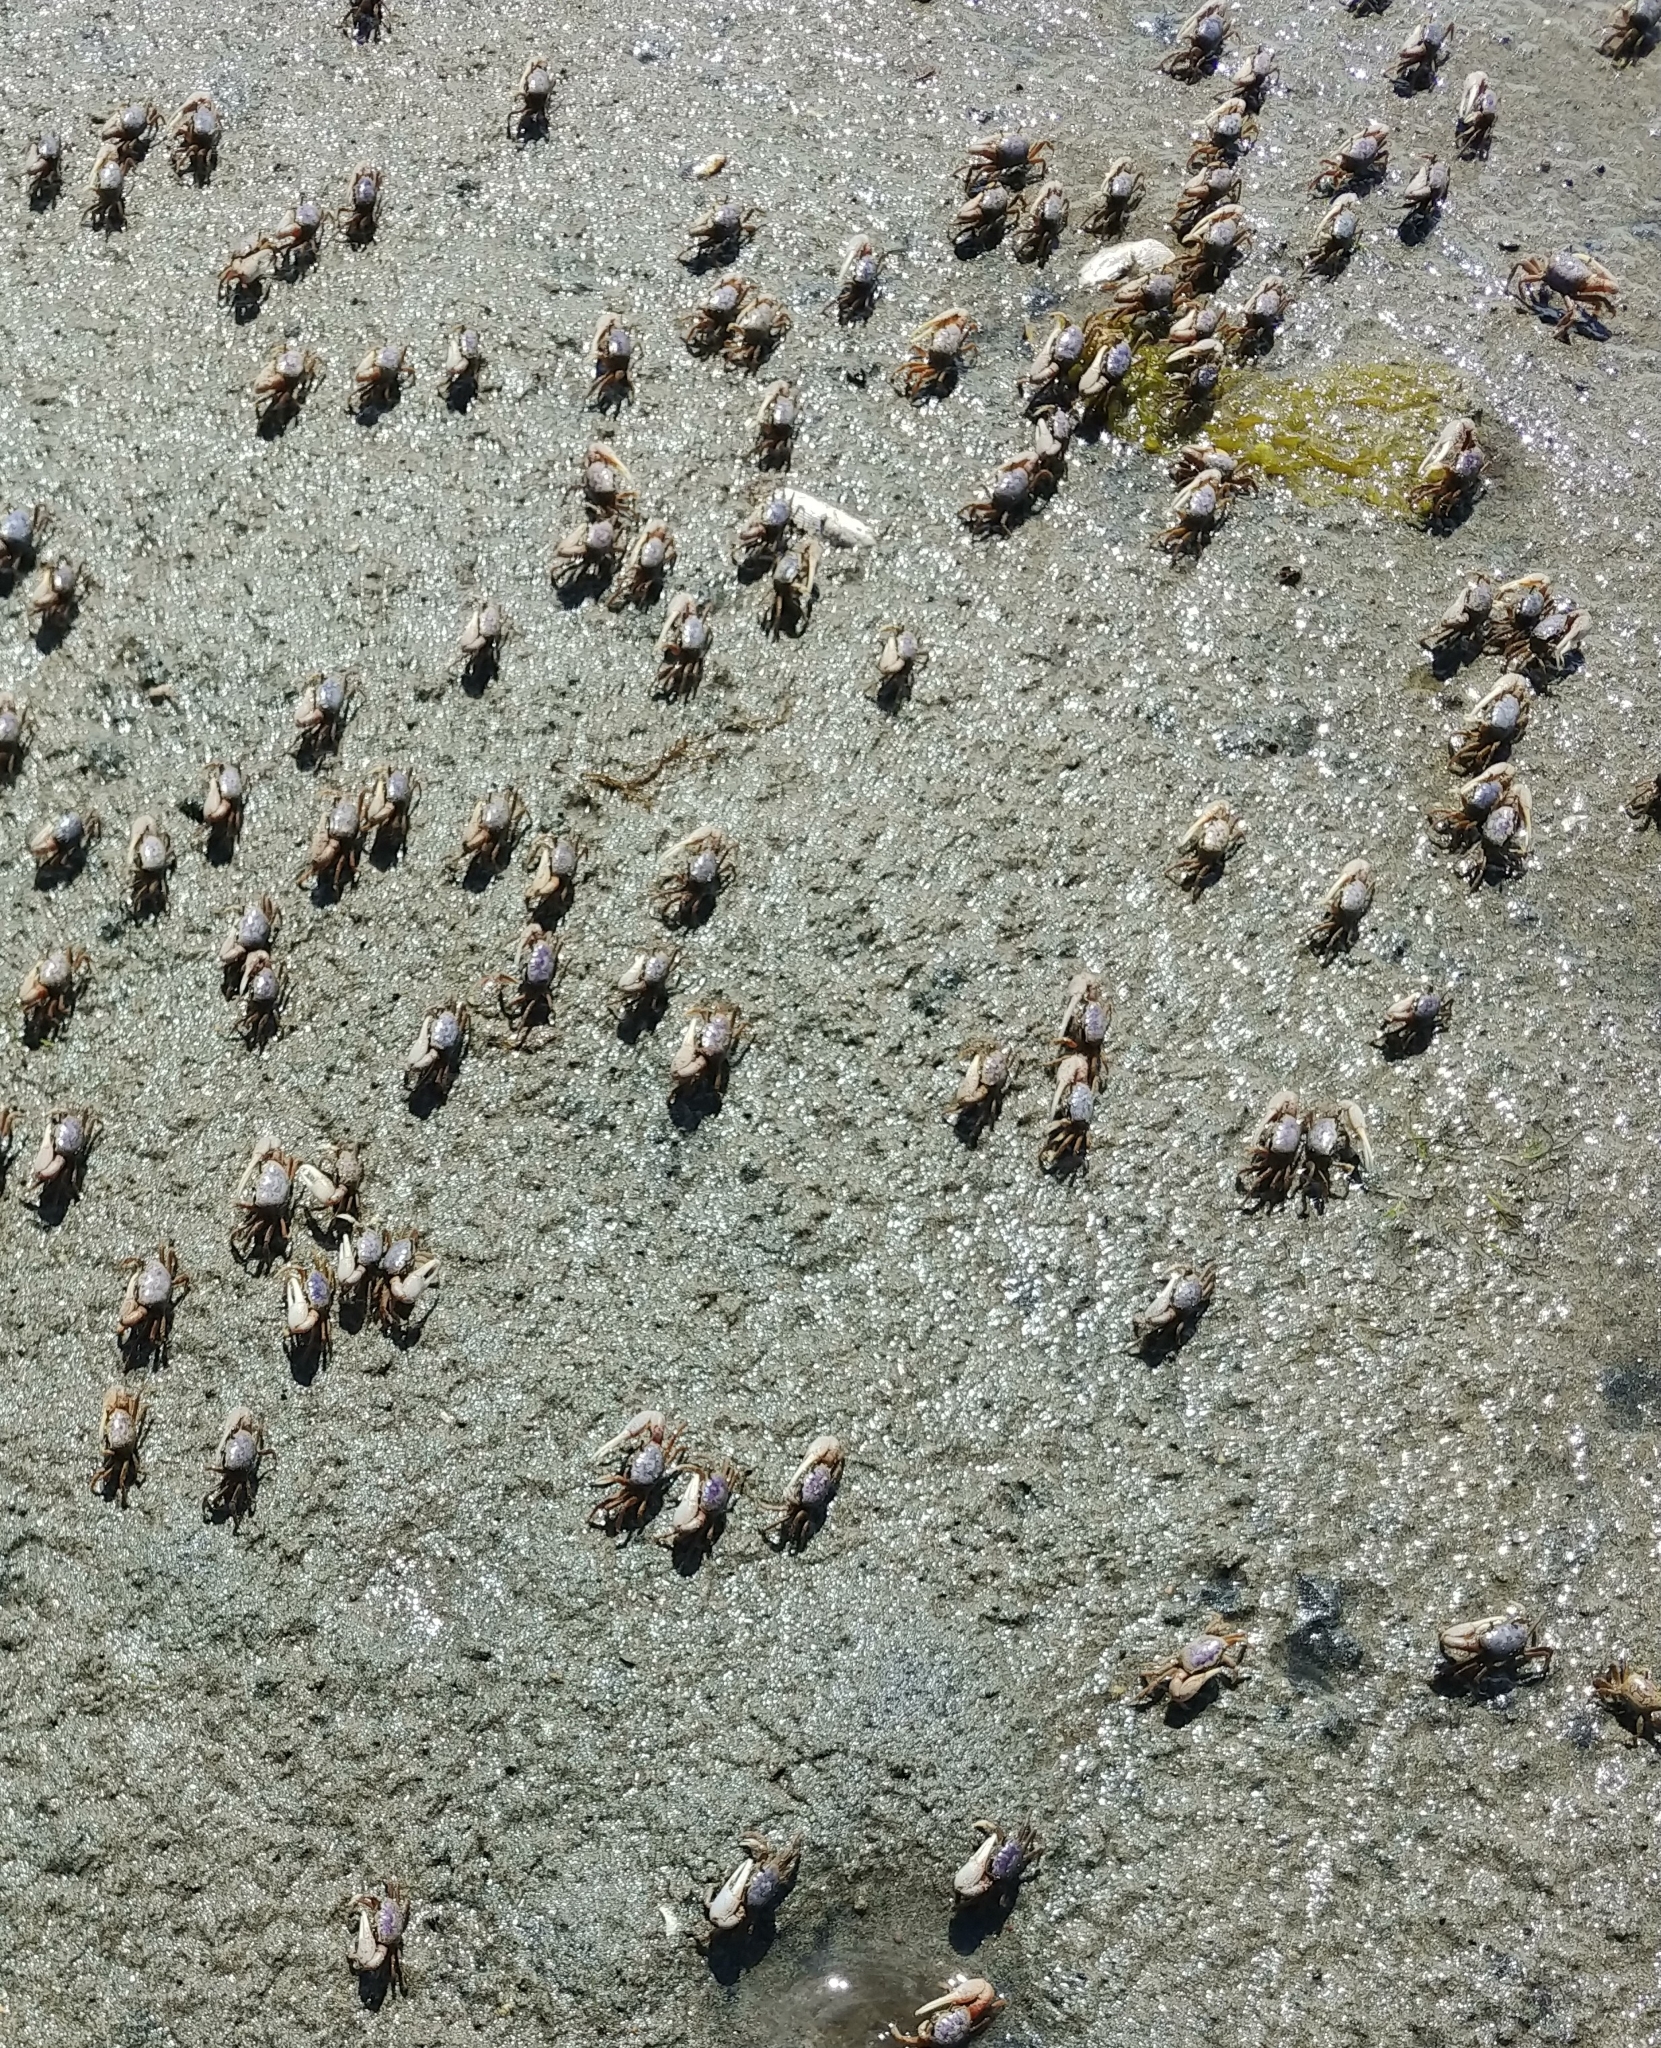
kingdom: Animalia
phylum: Arthropoda
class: Malacostraca
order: Decapoda
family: Ocypodidae
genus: Leptuca
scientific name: Leptuca pugilator
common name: Atlantic sand fiddler crab
